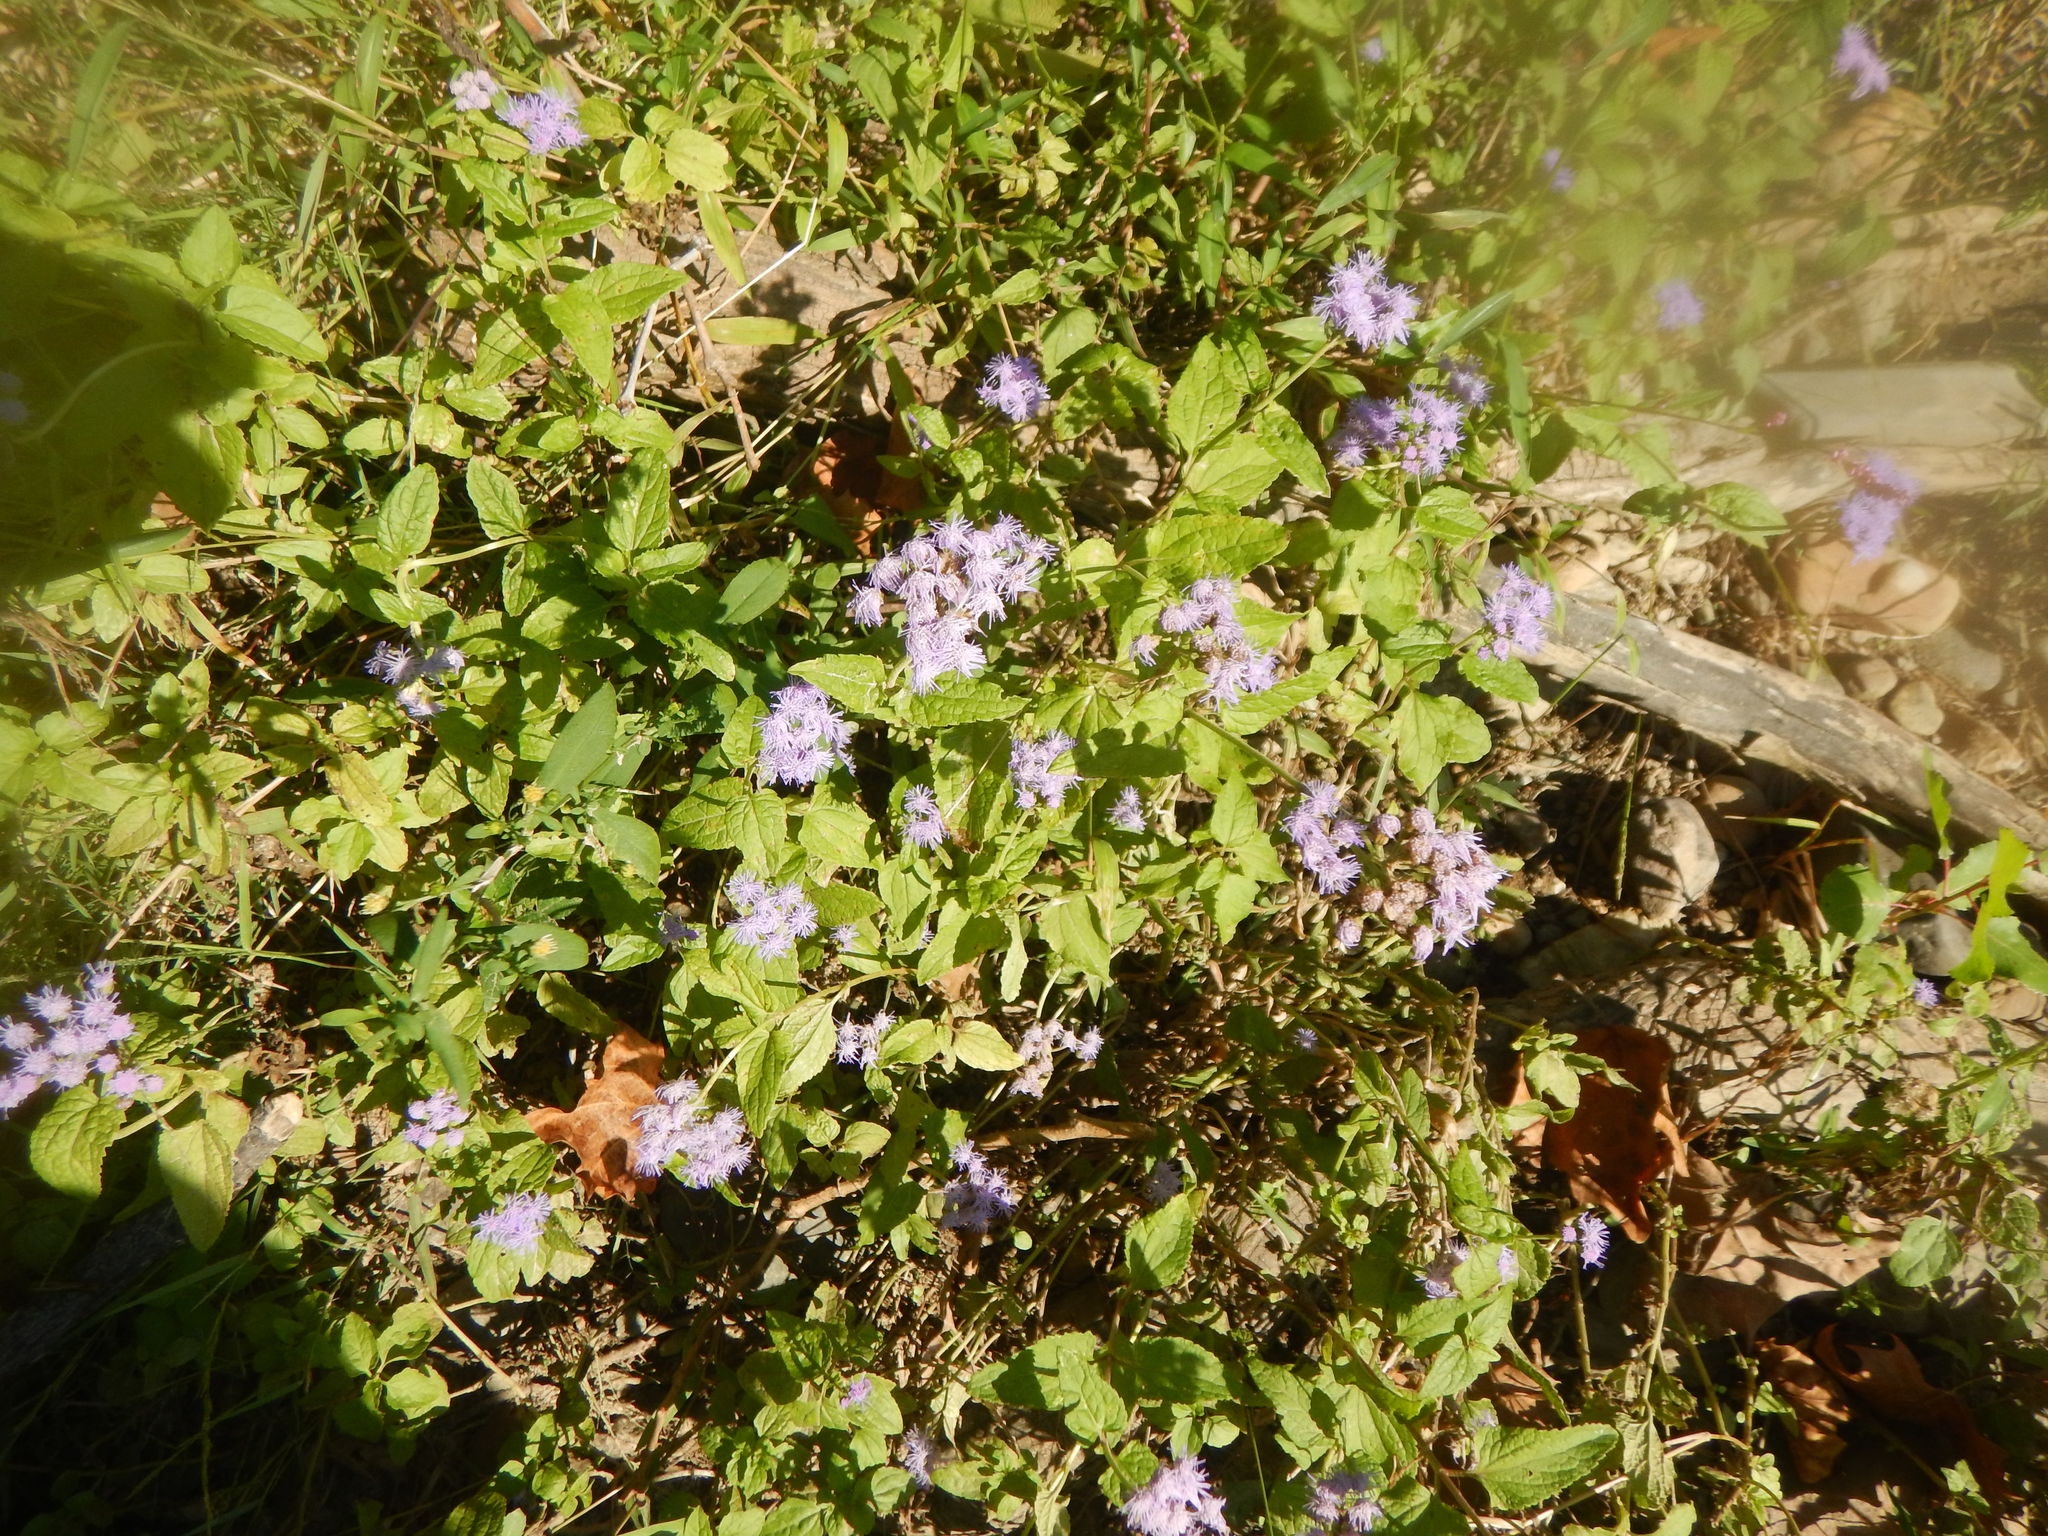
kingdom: Plantae
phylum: Tracheophyta
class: Magnoliopsida
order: Asterales
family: Asteraceae
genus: Conoclinium
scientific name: Conoclinium coelestinum
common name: Blue mistflower
